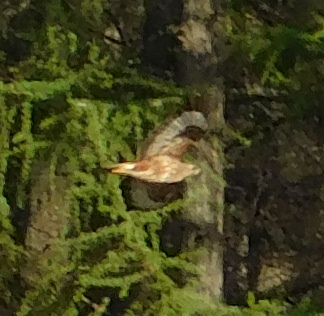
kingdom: Animalia
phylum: Chordata
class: Aves
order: Accipitriformes
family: Accipitridae
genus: Buteo
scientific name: Buteo buteo
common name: Common buzzard
